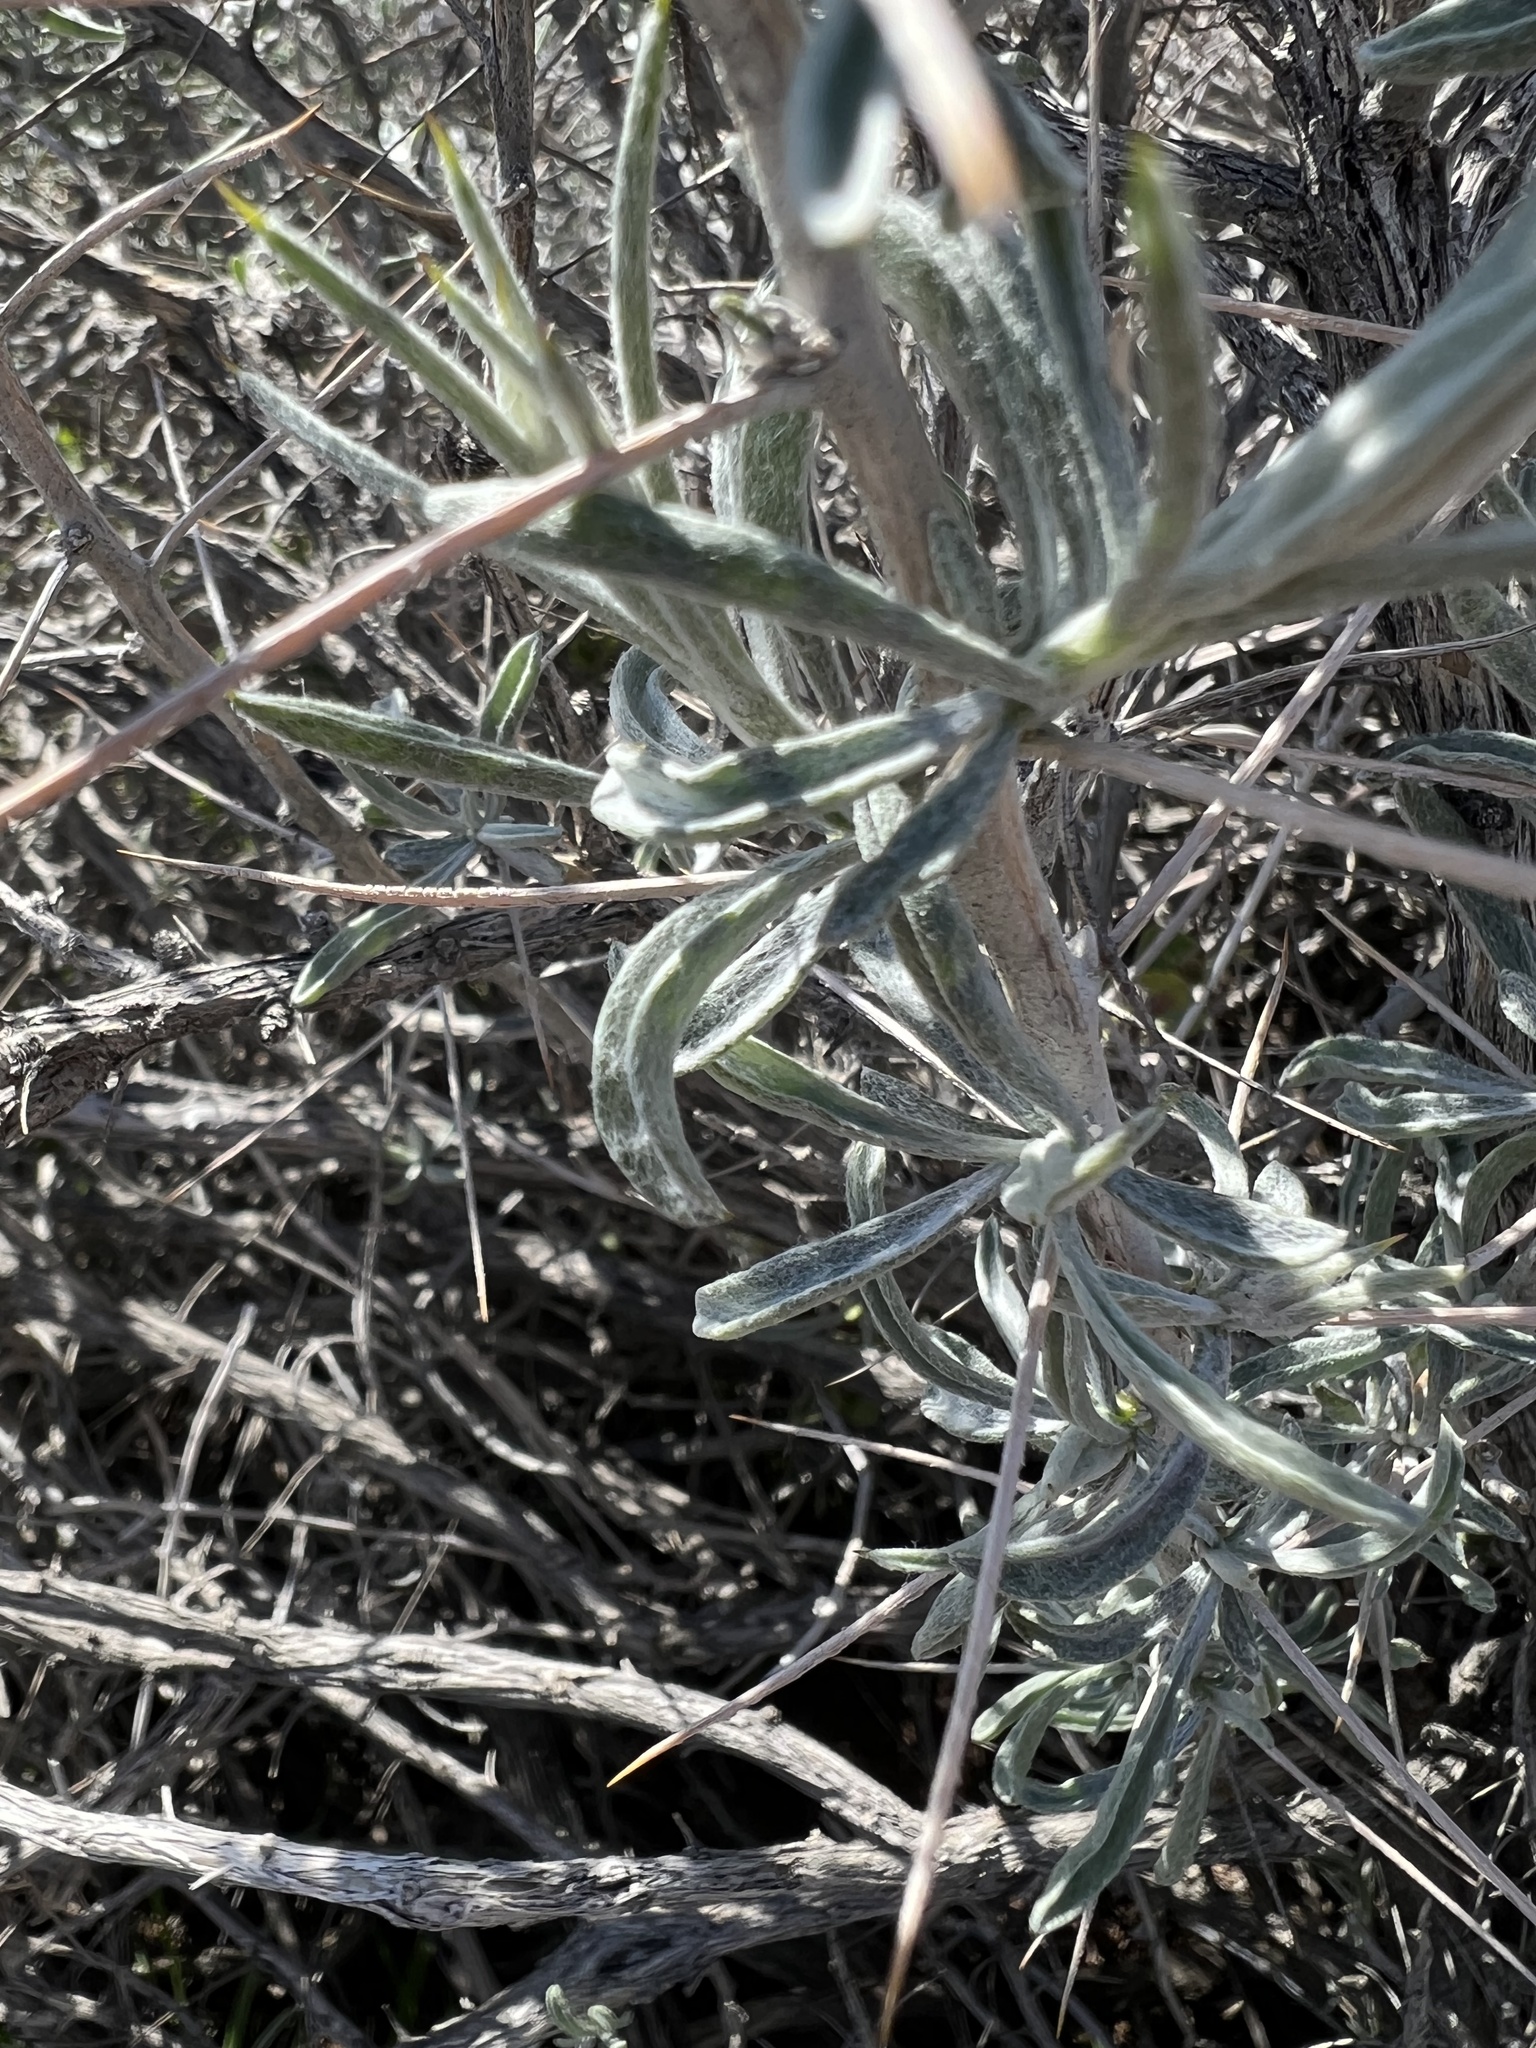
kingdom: Plantae
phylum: Tracheophyta
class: Magnoliopsida
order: Asterales
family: Asteraceae
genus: Tetradymia
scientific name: Tetradymia stenolepis
